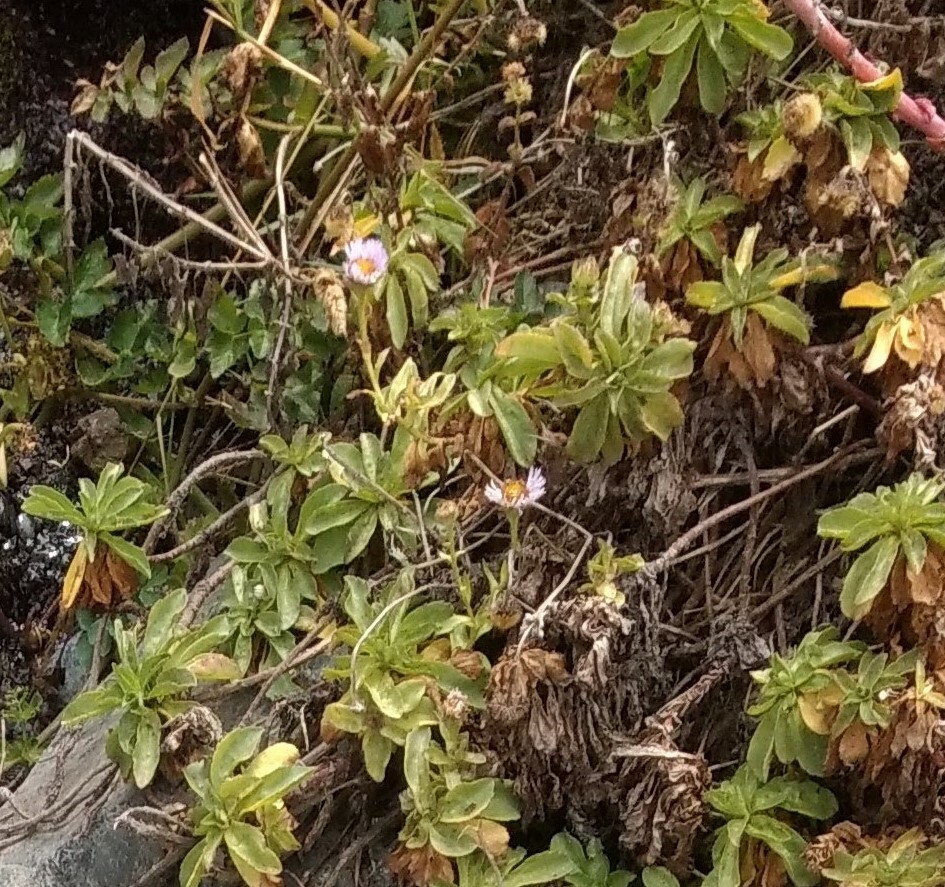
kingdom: Plantae
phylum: Tracheophyta
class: Magnoliopsida
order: Asterales
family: Asteraceae
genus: Erigeron
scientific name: Erigeron glaucus
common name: Seaside daisy
